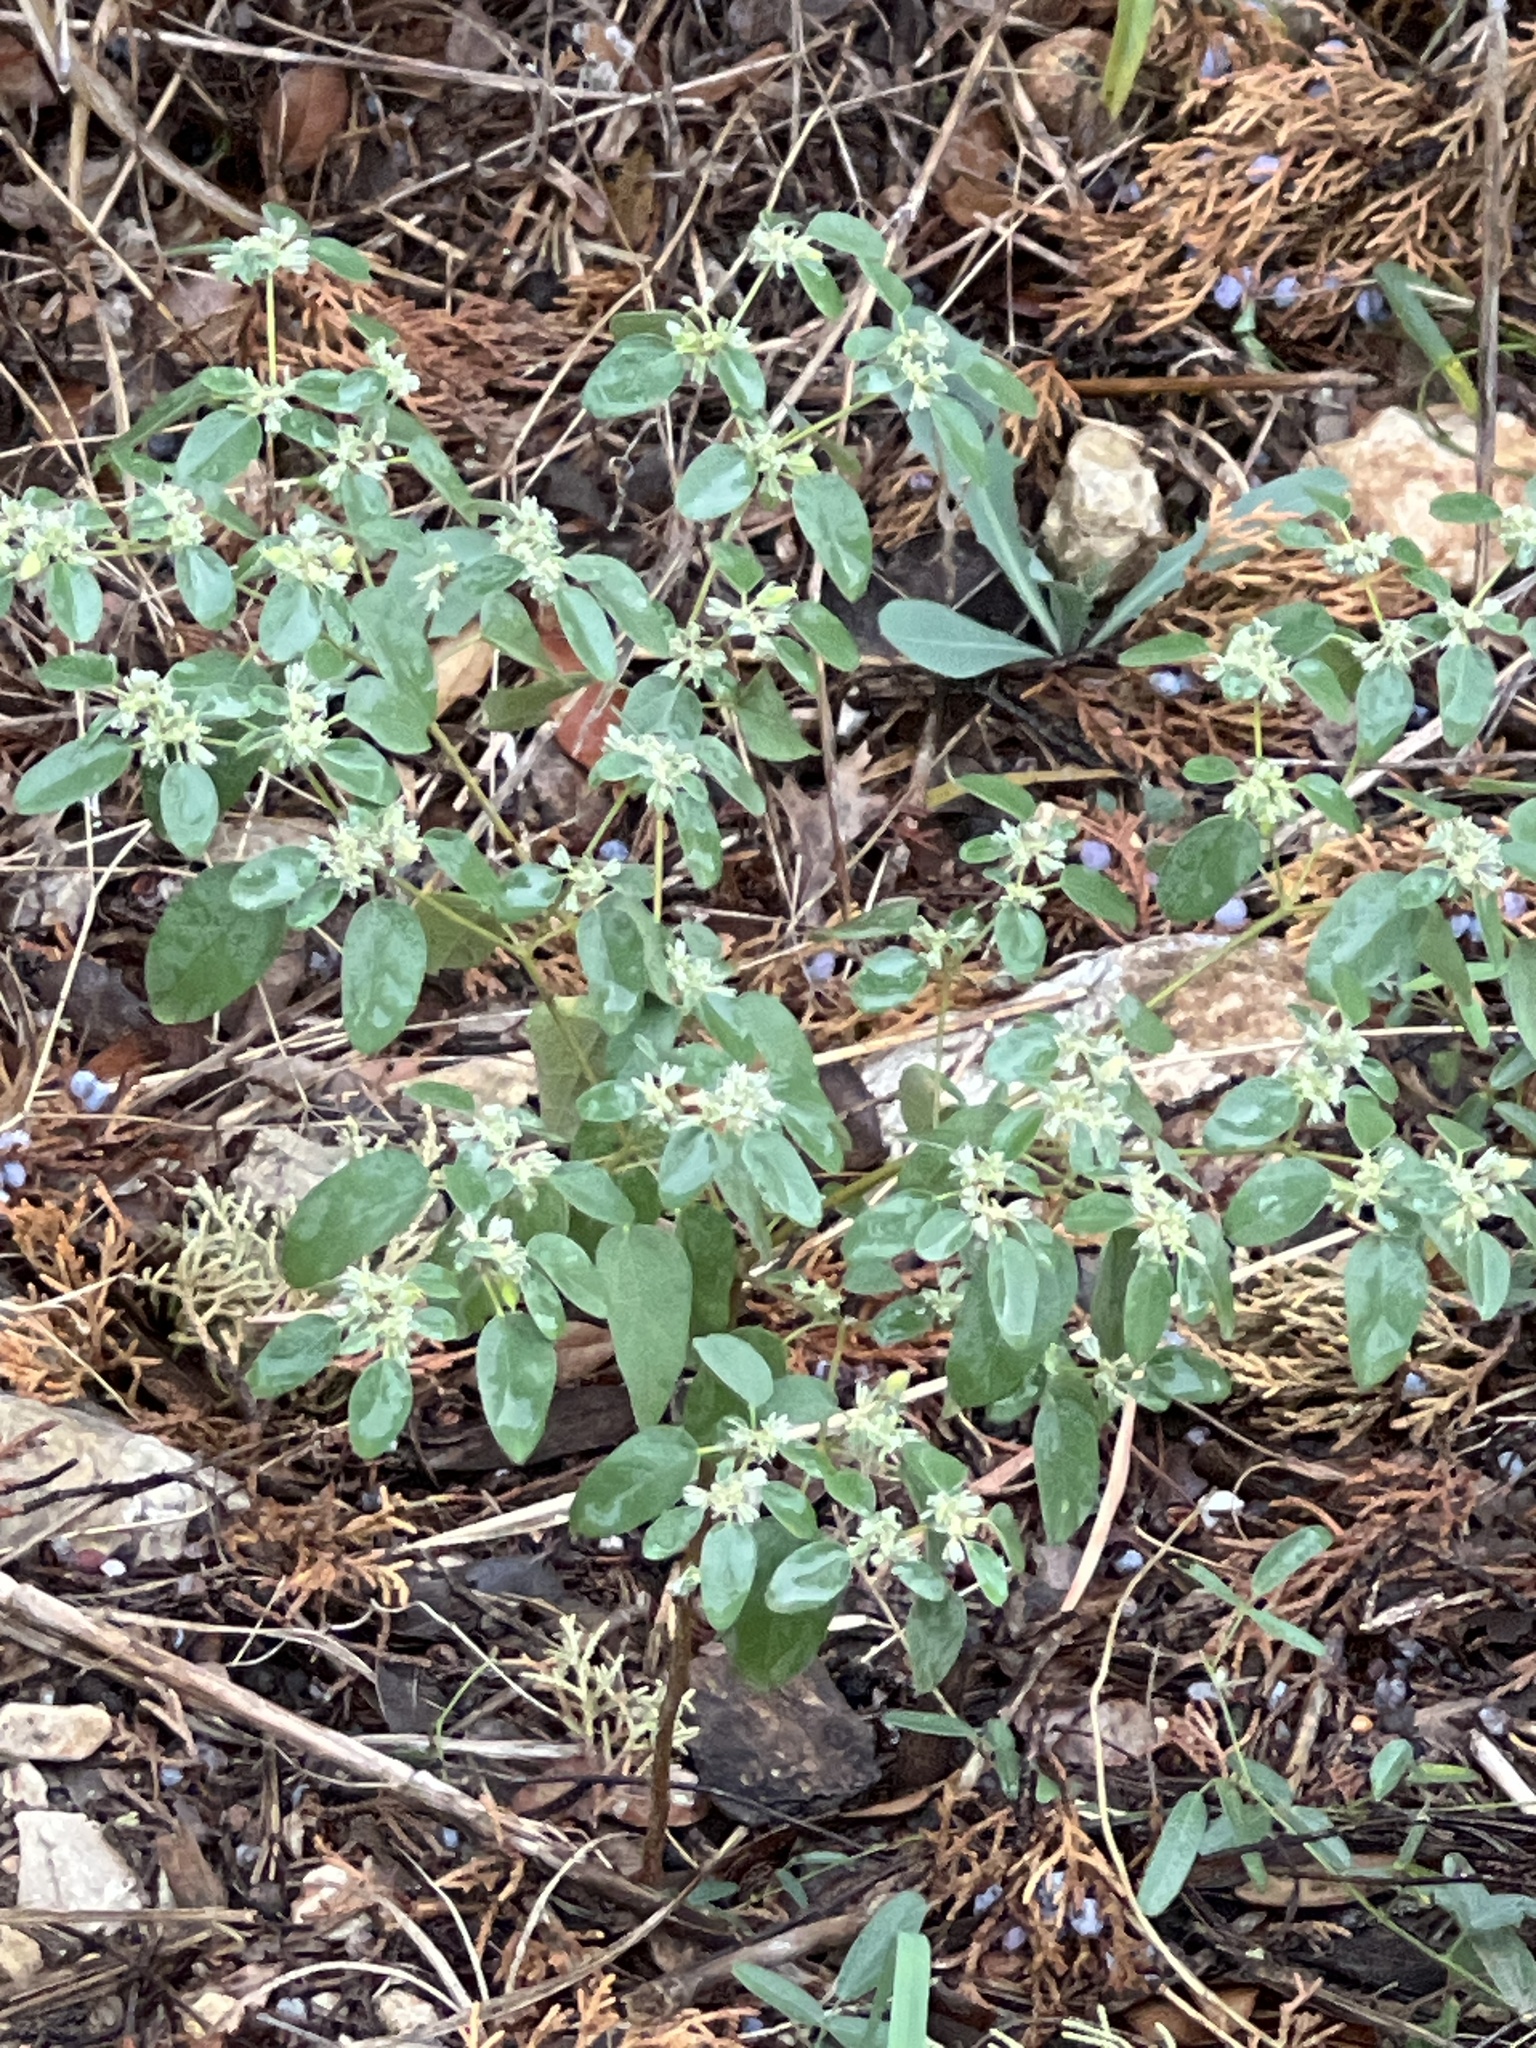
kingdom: Plantae
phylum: Tracheophyta
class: Magnoliopsida
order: Malpighiales
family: Euphorbiaceae
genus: Croton
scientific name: Croton monanthogynus
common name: One-seed croton
